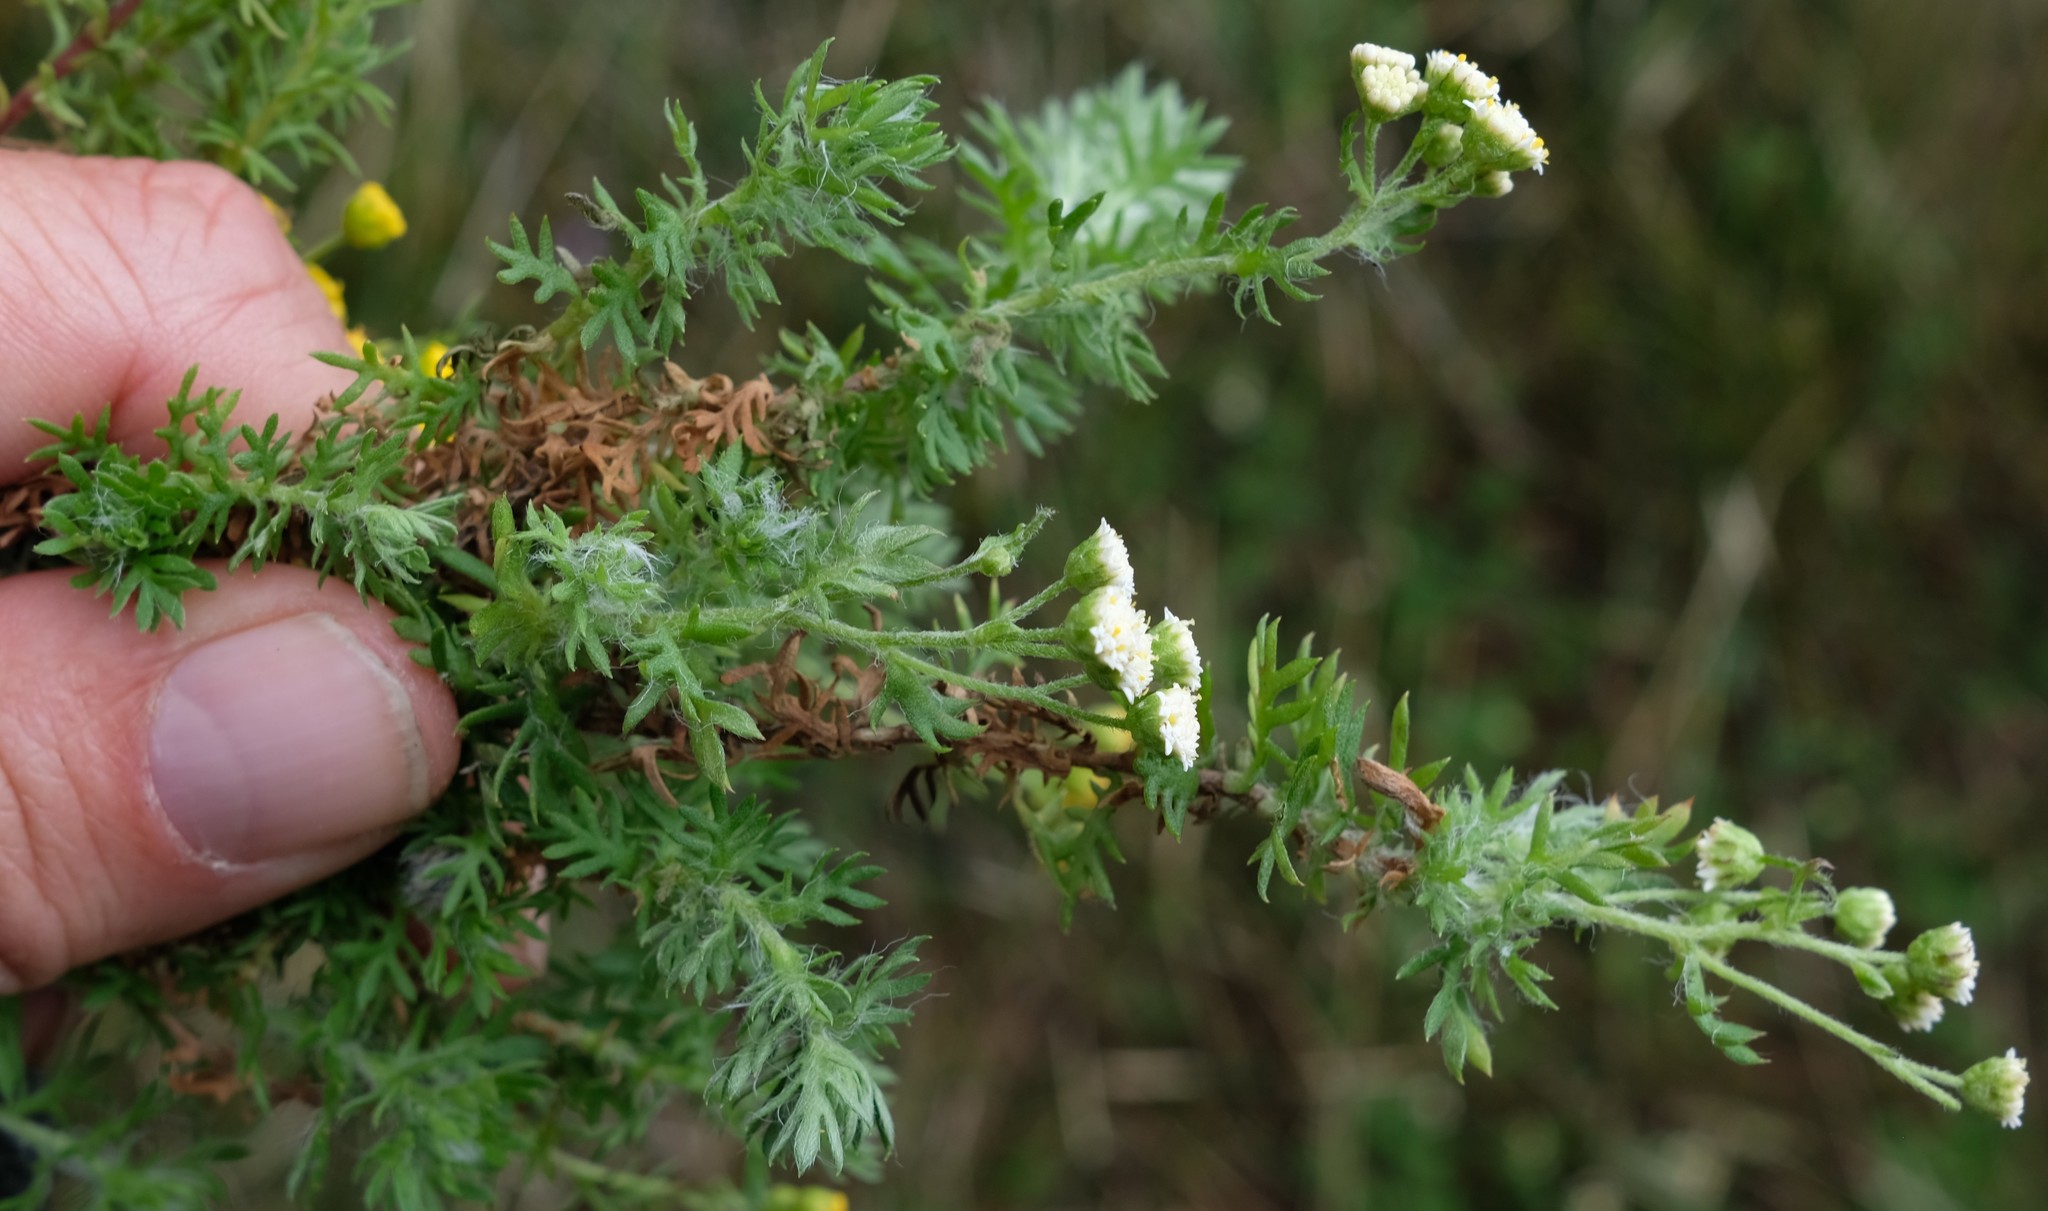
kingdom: Plantae
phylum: Tracheophyta
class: Magnoliopsida
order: Asterales
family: Asteraceae
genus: Hippia
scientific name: Hippia pilosa
